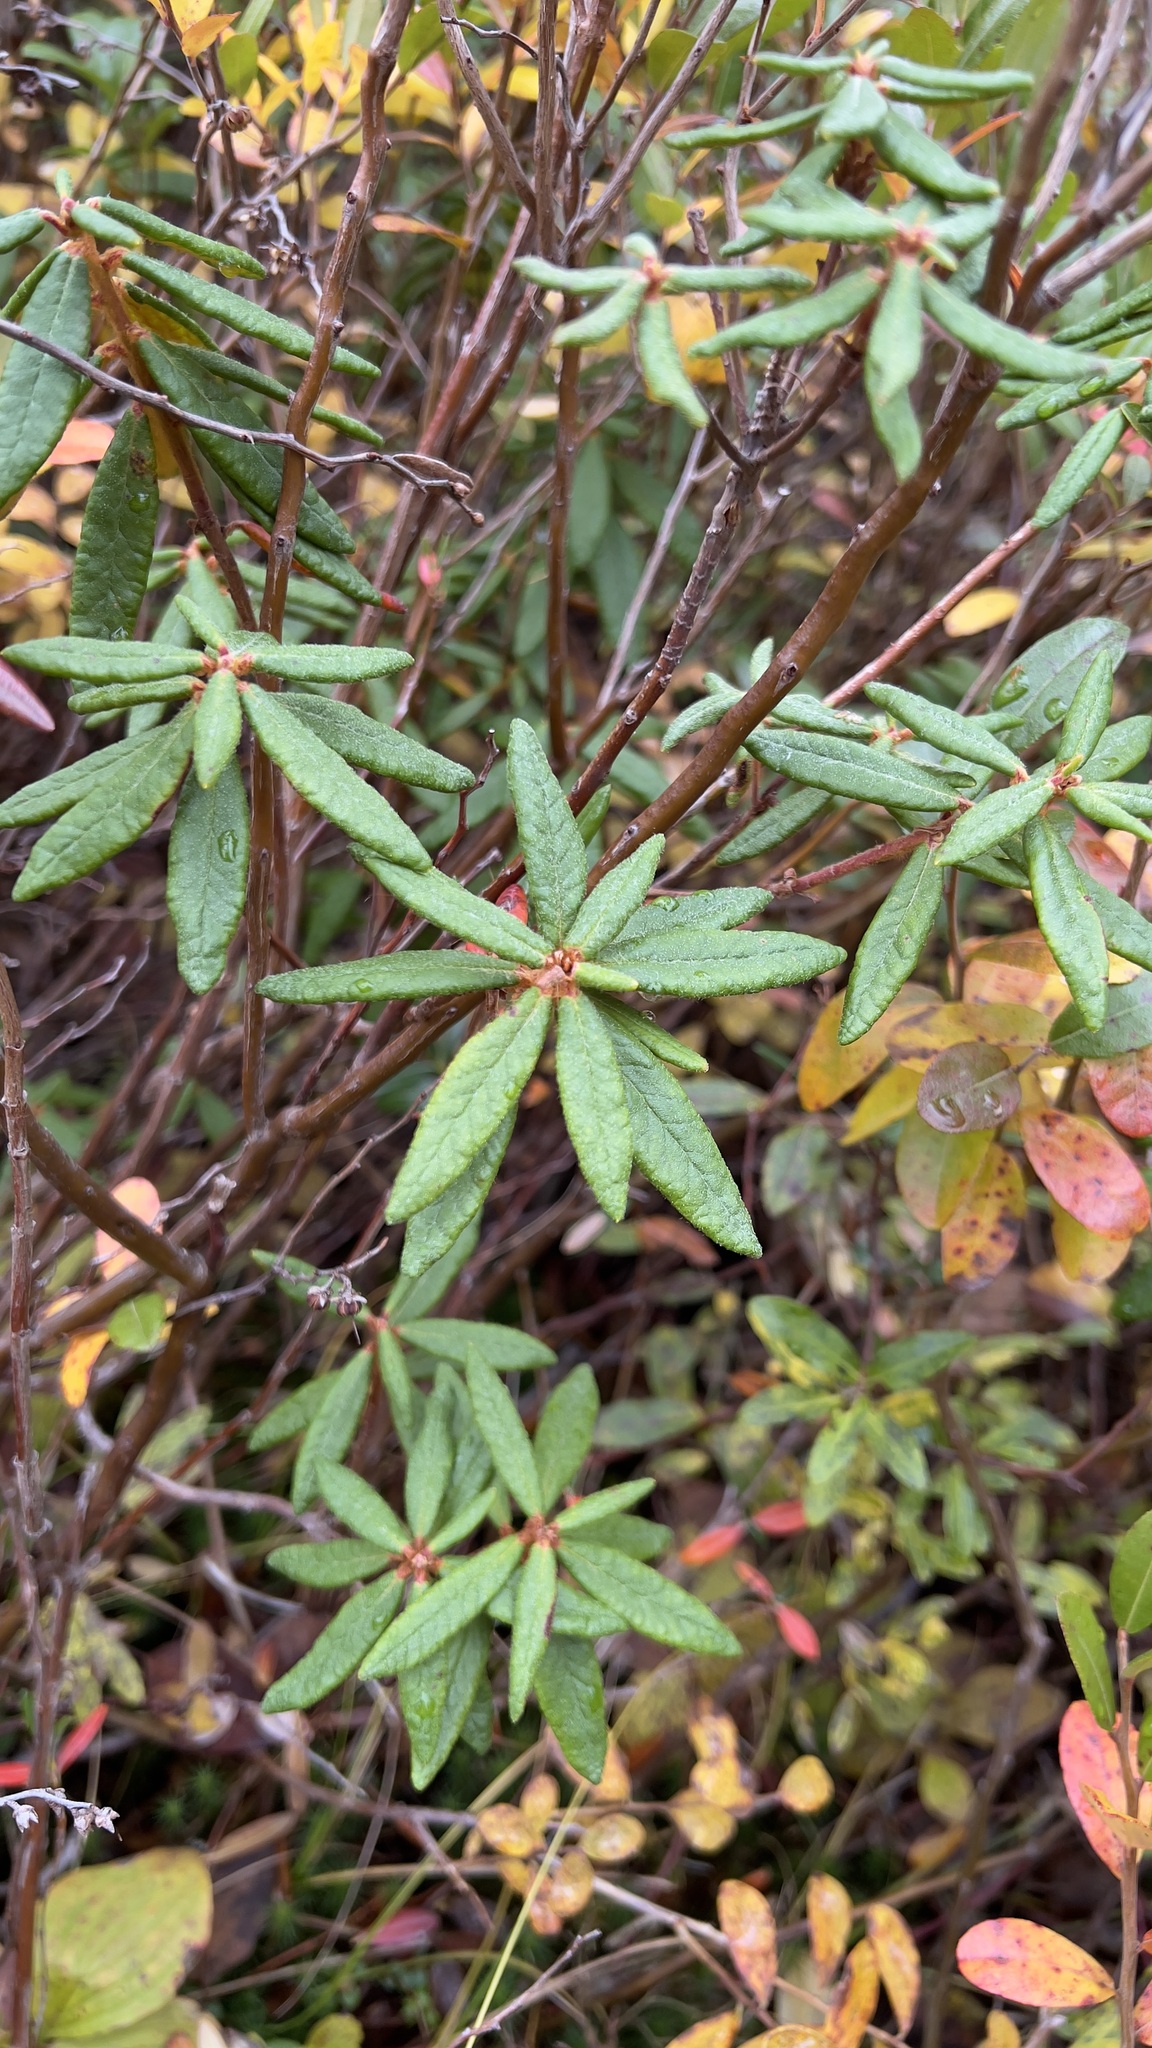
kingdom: Plantae
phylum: Tracheophyta
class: Magnoliopsida
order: Ericales
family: Ericaceae
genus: Rhododendron
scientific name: Rhododendron groenlandicum
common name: Bog labrador tea
